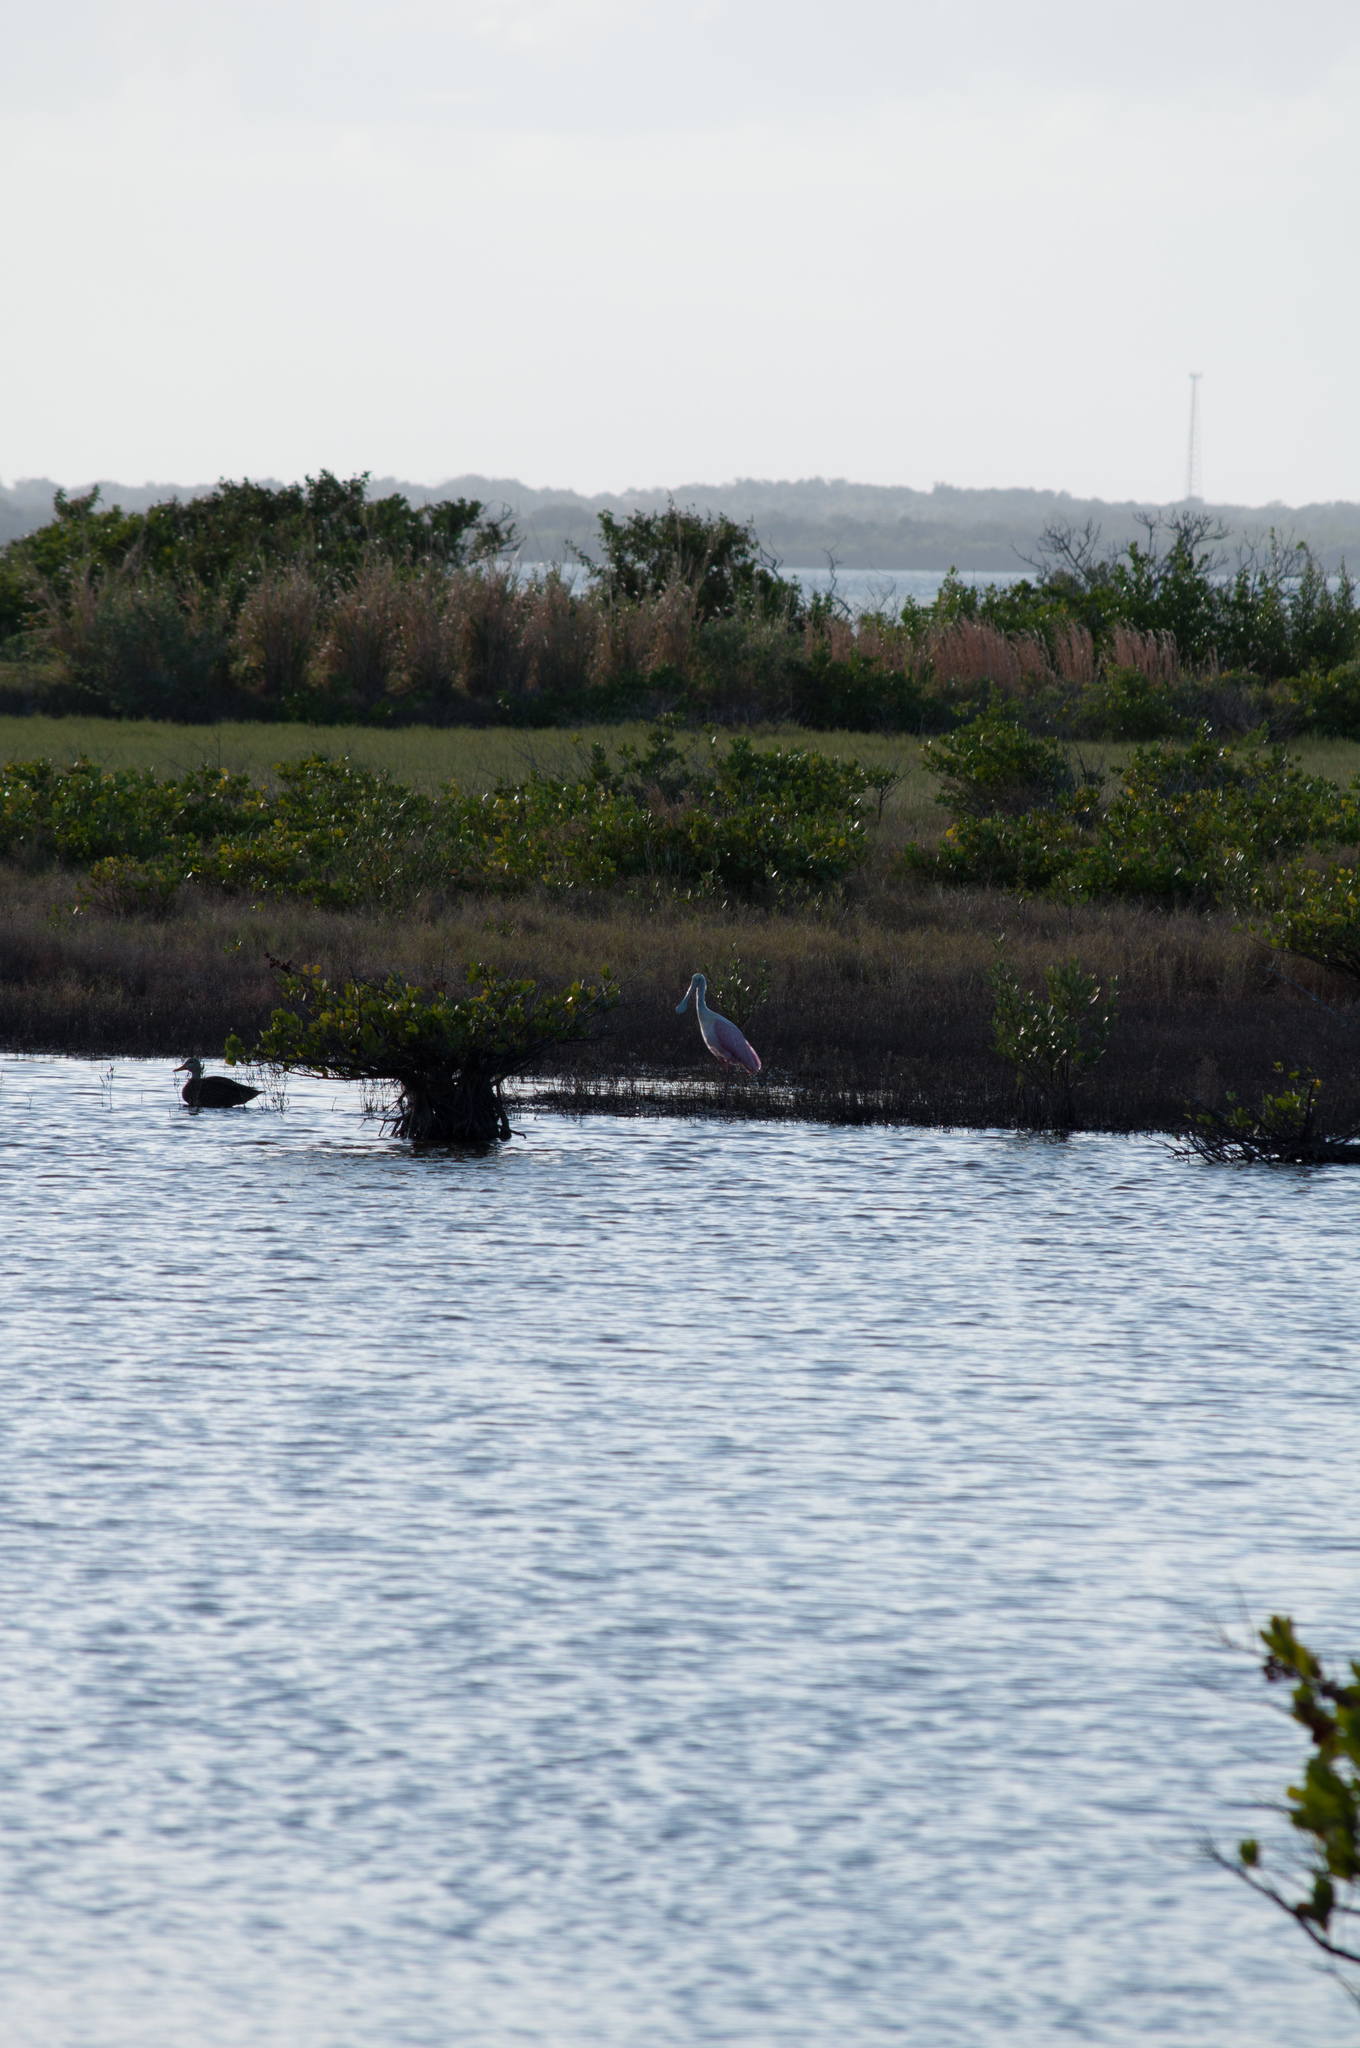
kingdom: Animalia
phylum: Chordata
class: Aves
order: Pelecaniformes
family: Threskiornithidae
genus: Platalea
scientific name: Platalea ajaja
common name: Roseate spoonbill
